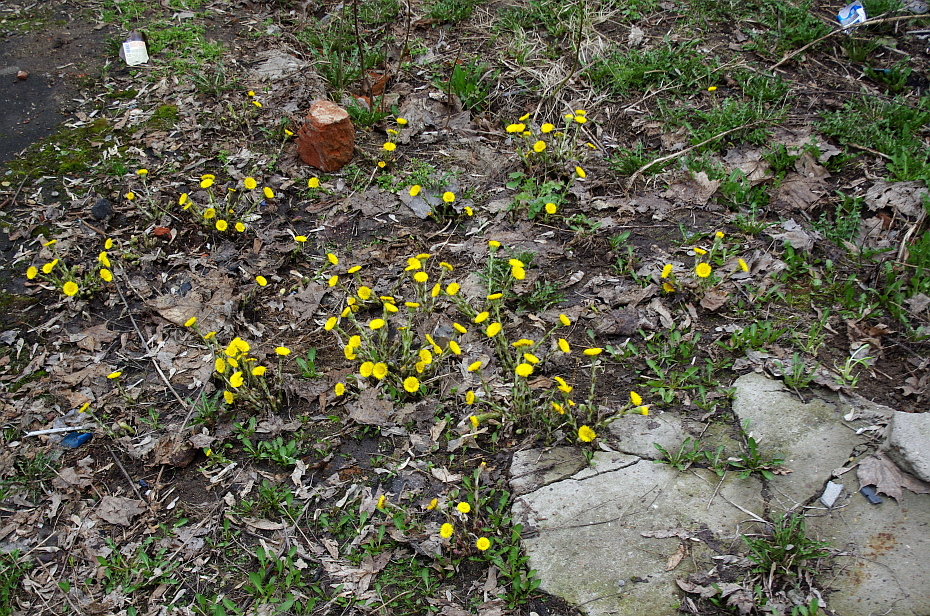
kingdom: Plantae
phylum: Tracheophyta
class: Magnoliopsida
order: Asterales
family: Asteraceae
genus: Tussilago
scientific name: Tussilago farfara
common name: Coltsfoot
